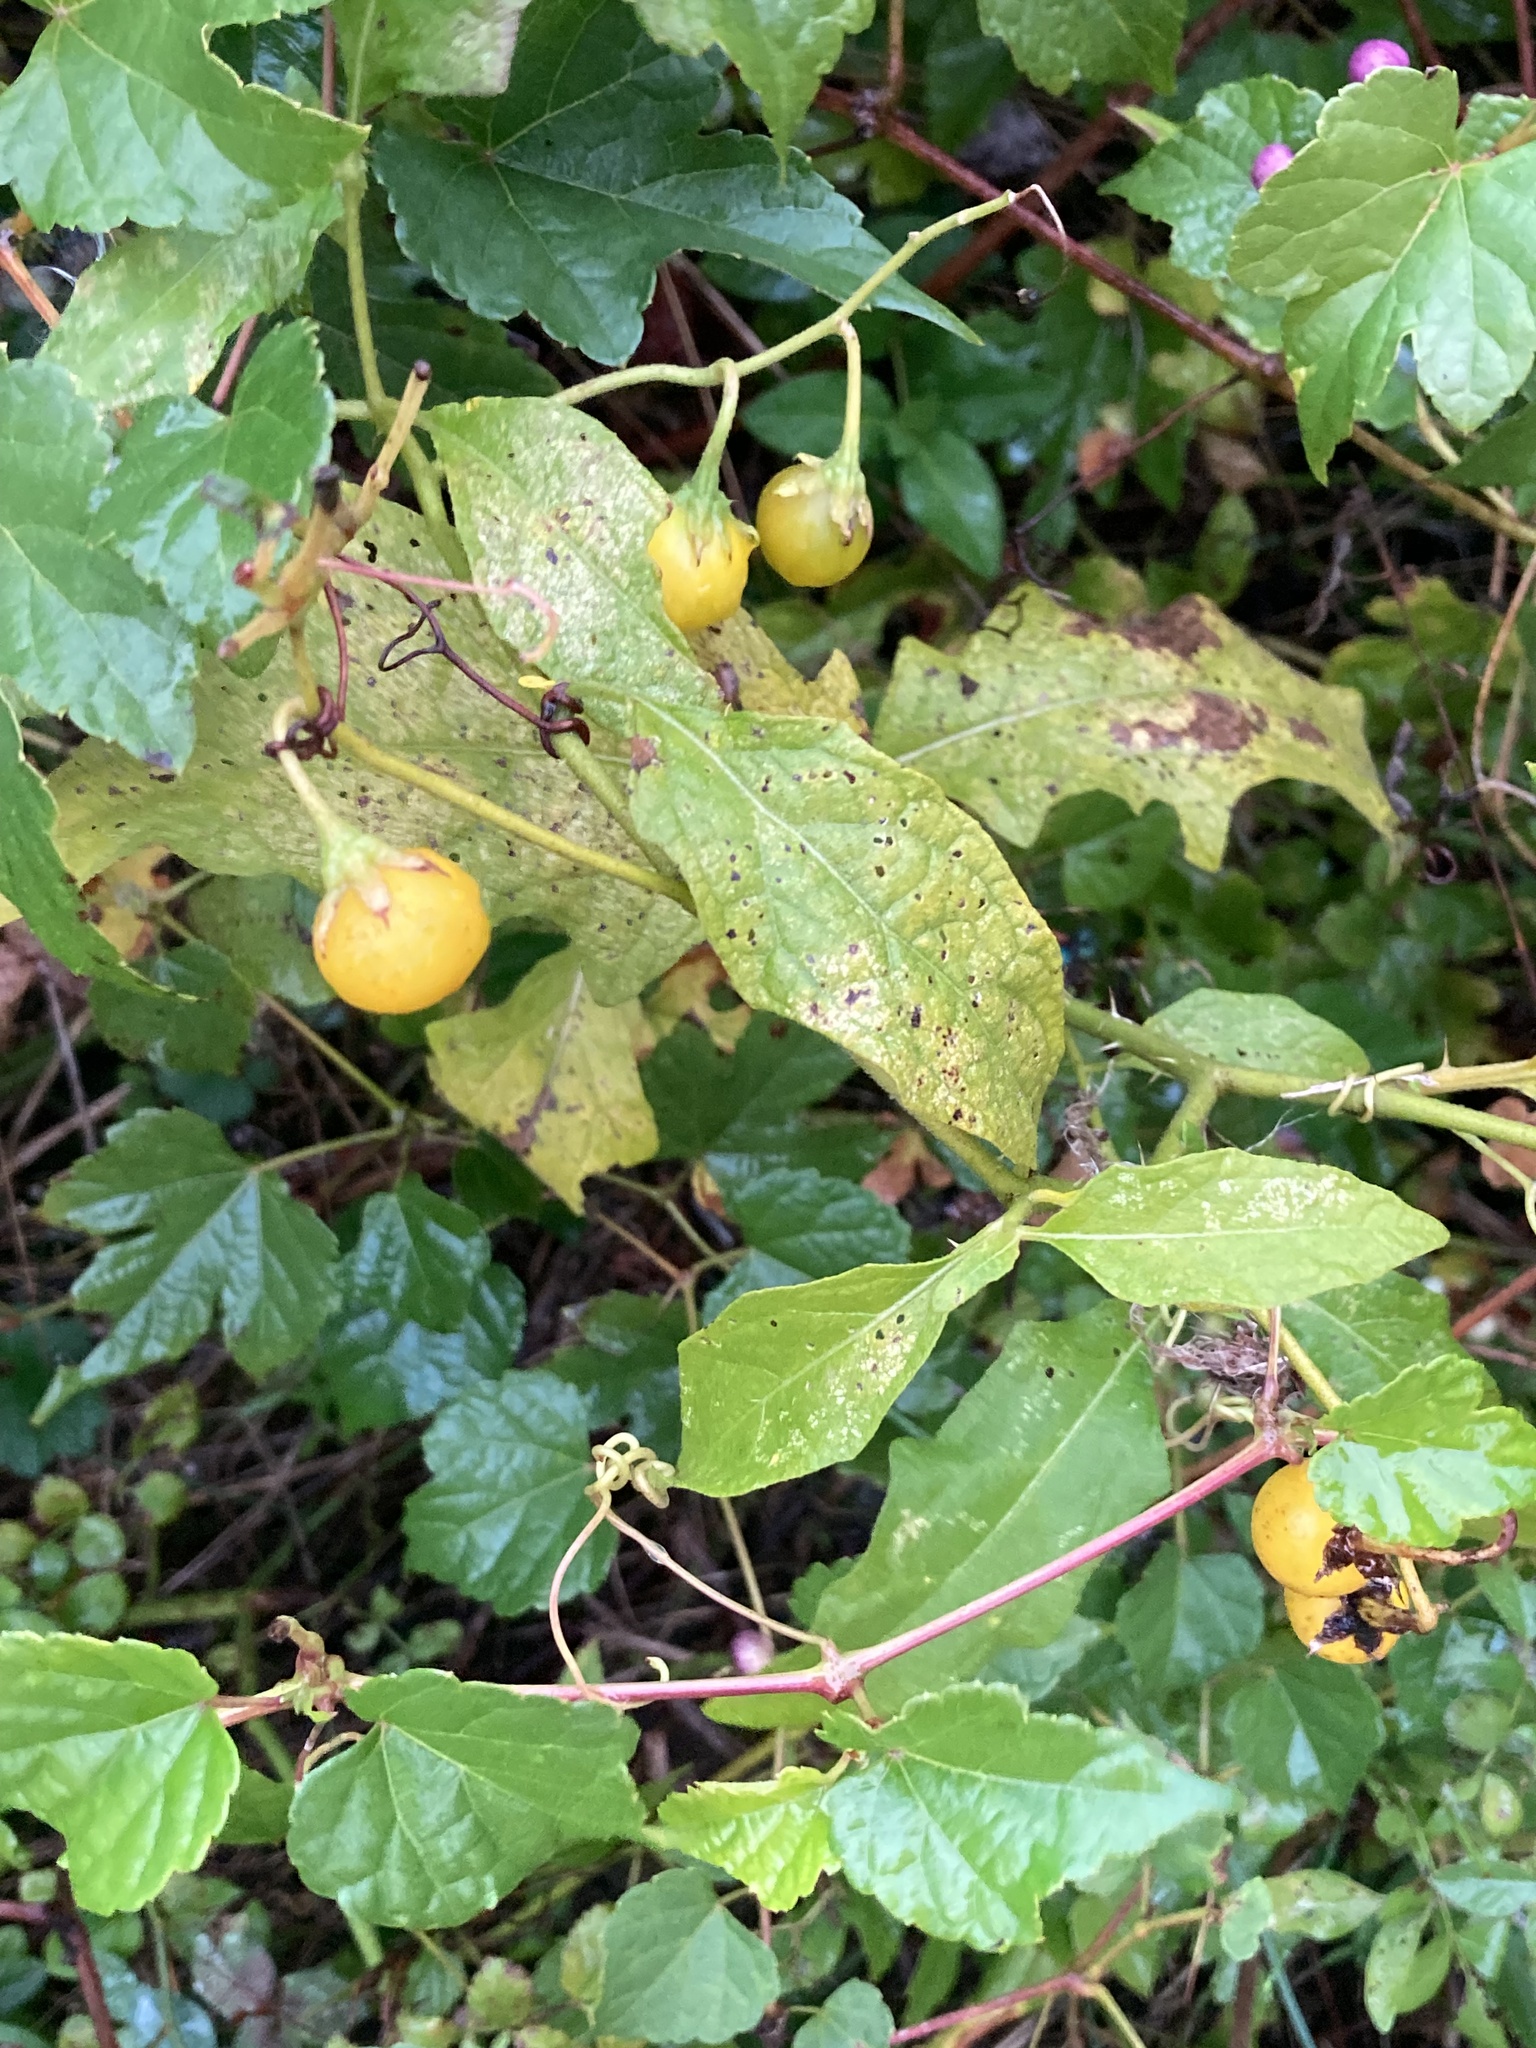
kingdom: Plantae
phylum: Tracheophyta
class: Magnoliopsida
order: Solanales
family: Solanaceae
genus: Solanum
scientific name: Solanum carolinense
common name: Horse-nettle
